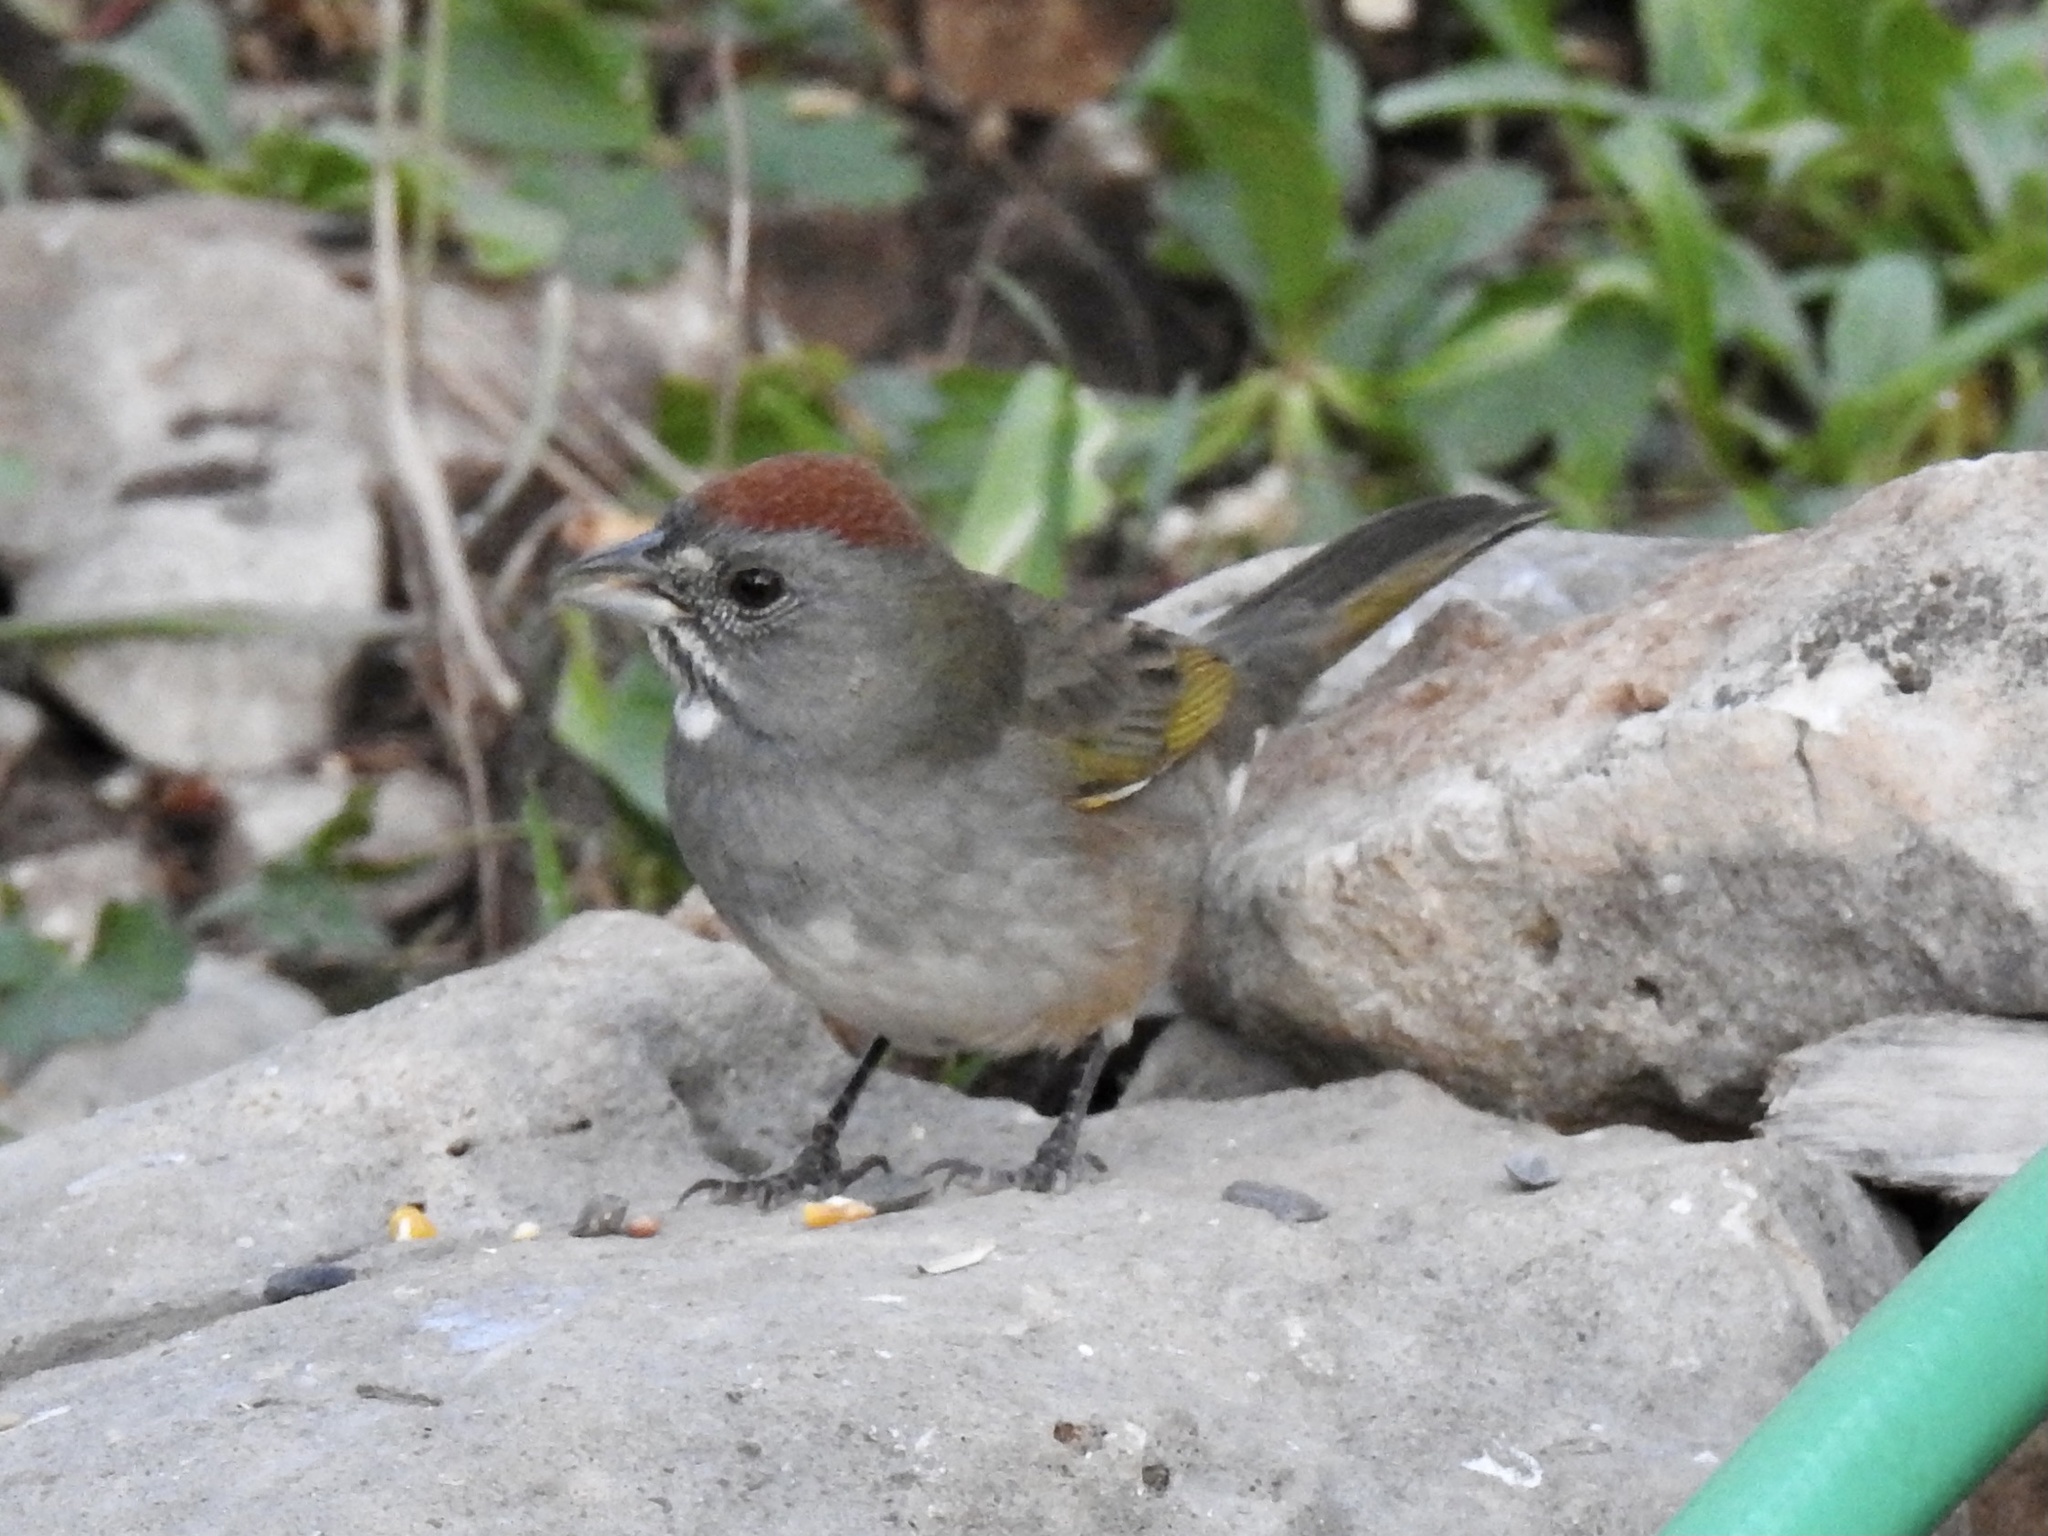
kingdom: Animalia
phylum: Chordata
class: Aves
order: Passeriformes
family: Passerellidae
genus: Pipilo
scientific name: Pipilo chlorurus
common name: Green-tailed towhee
